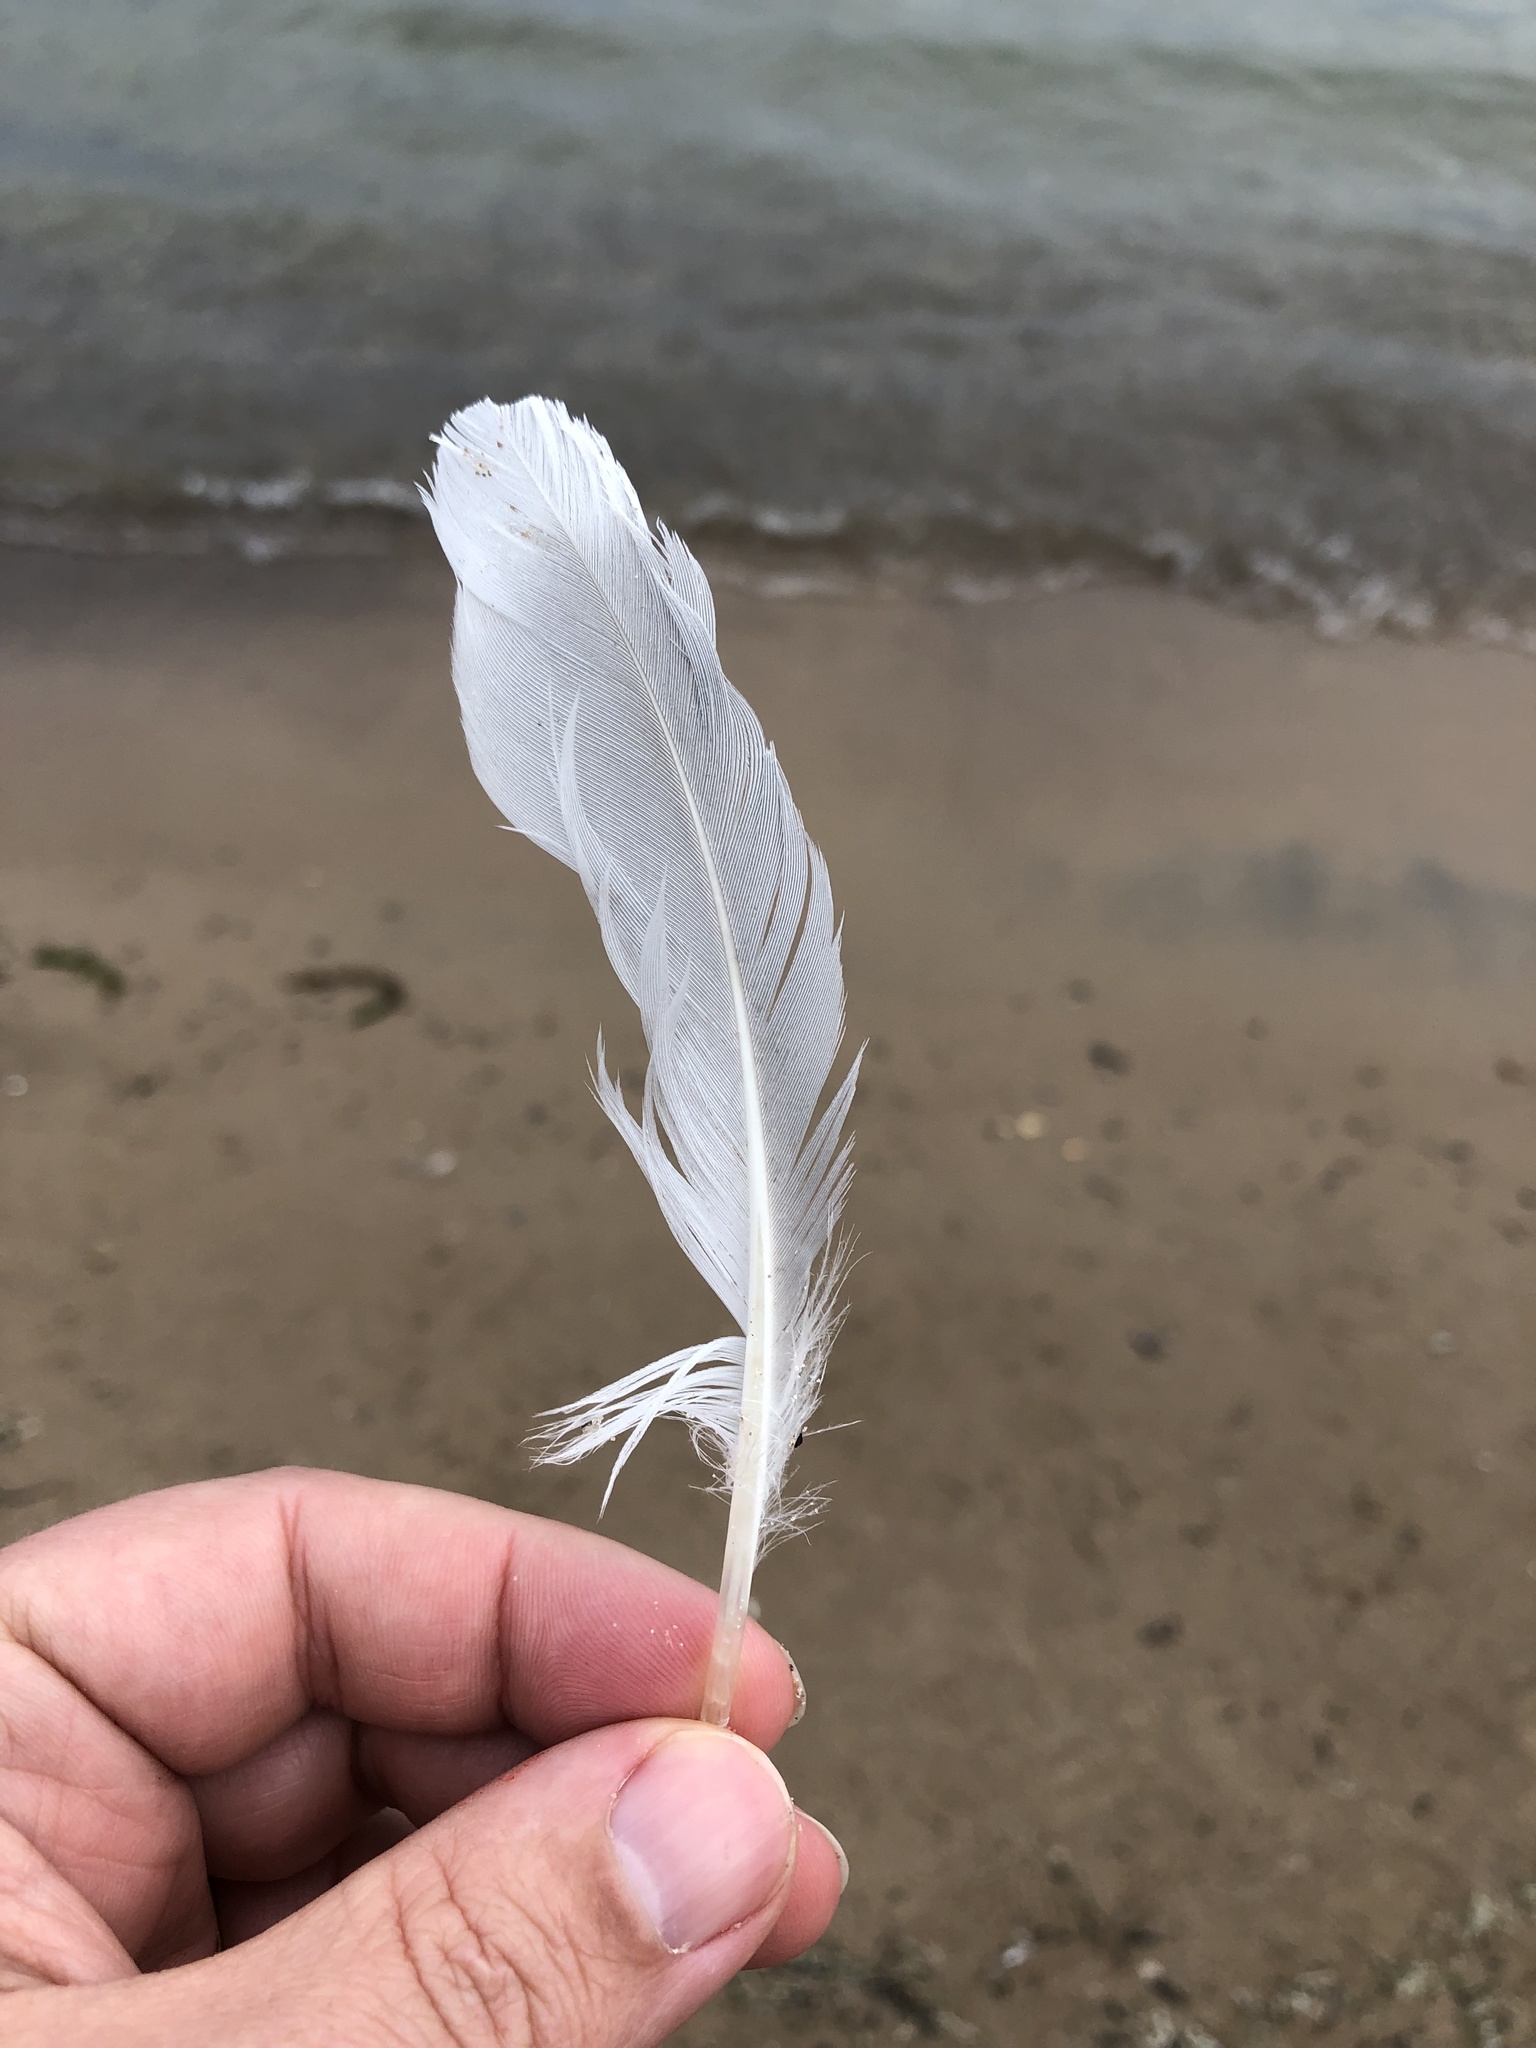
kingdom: Animalia
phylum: Chordata
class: Aves
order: Charadriiformes
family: Laridae
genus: Larus
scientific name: Larus delawarensis
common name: Ring-billed gull
